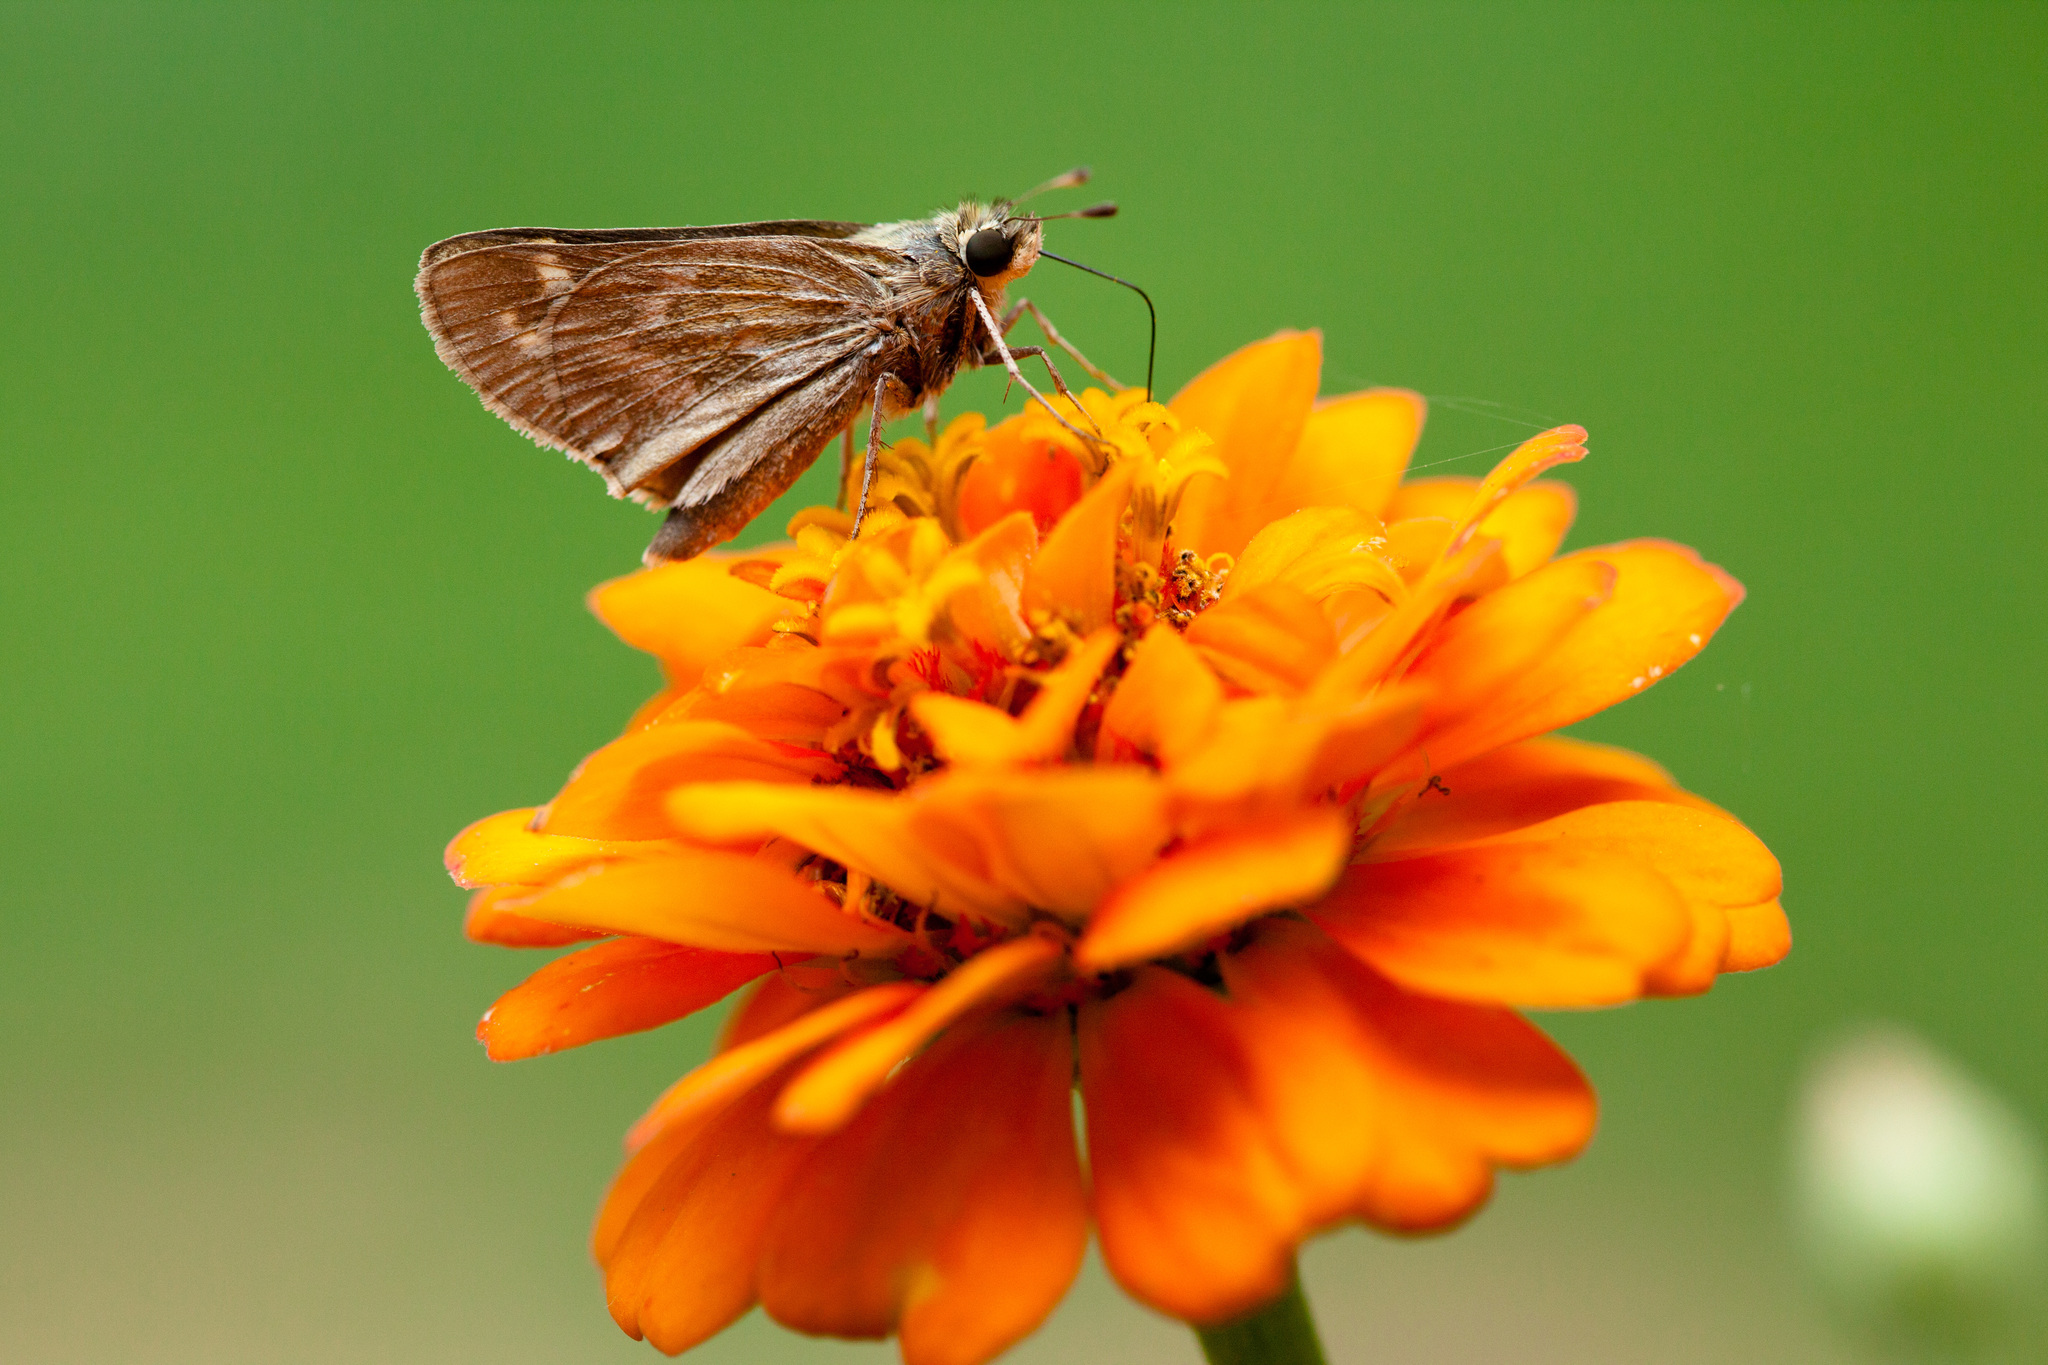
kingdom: Animalia
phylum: Arthropoda
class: Insecta
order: Lepidoptera
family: Hesperiidae
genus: Atalopedes
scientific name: Atalopedes
